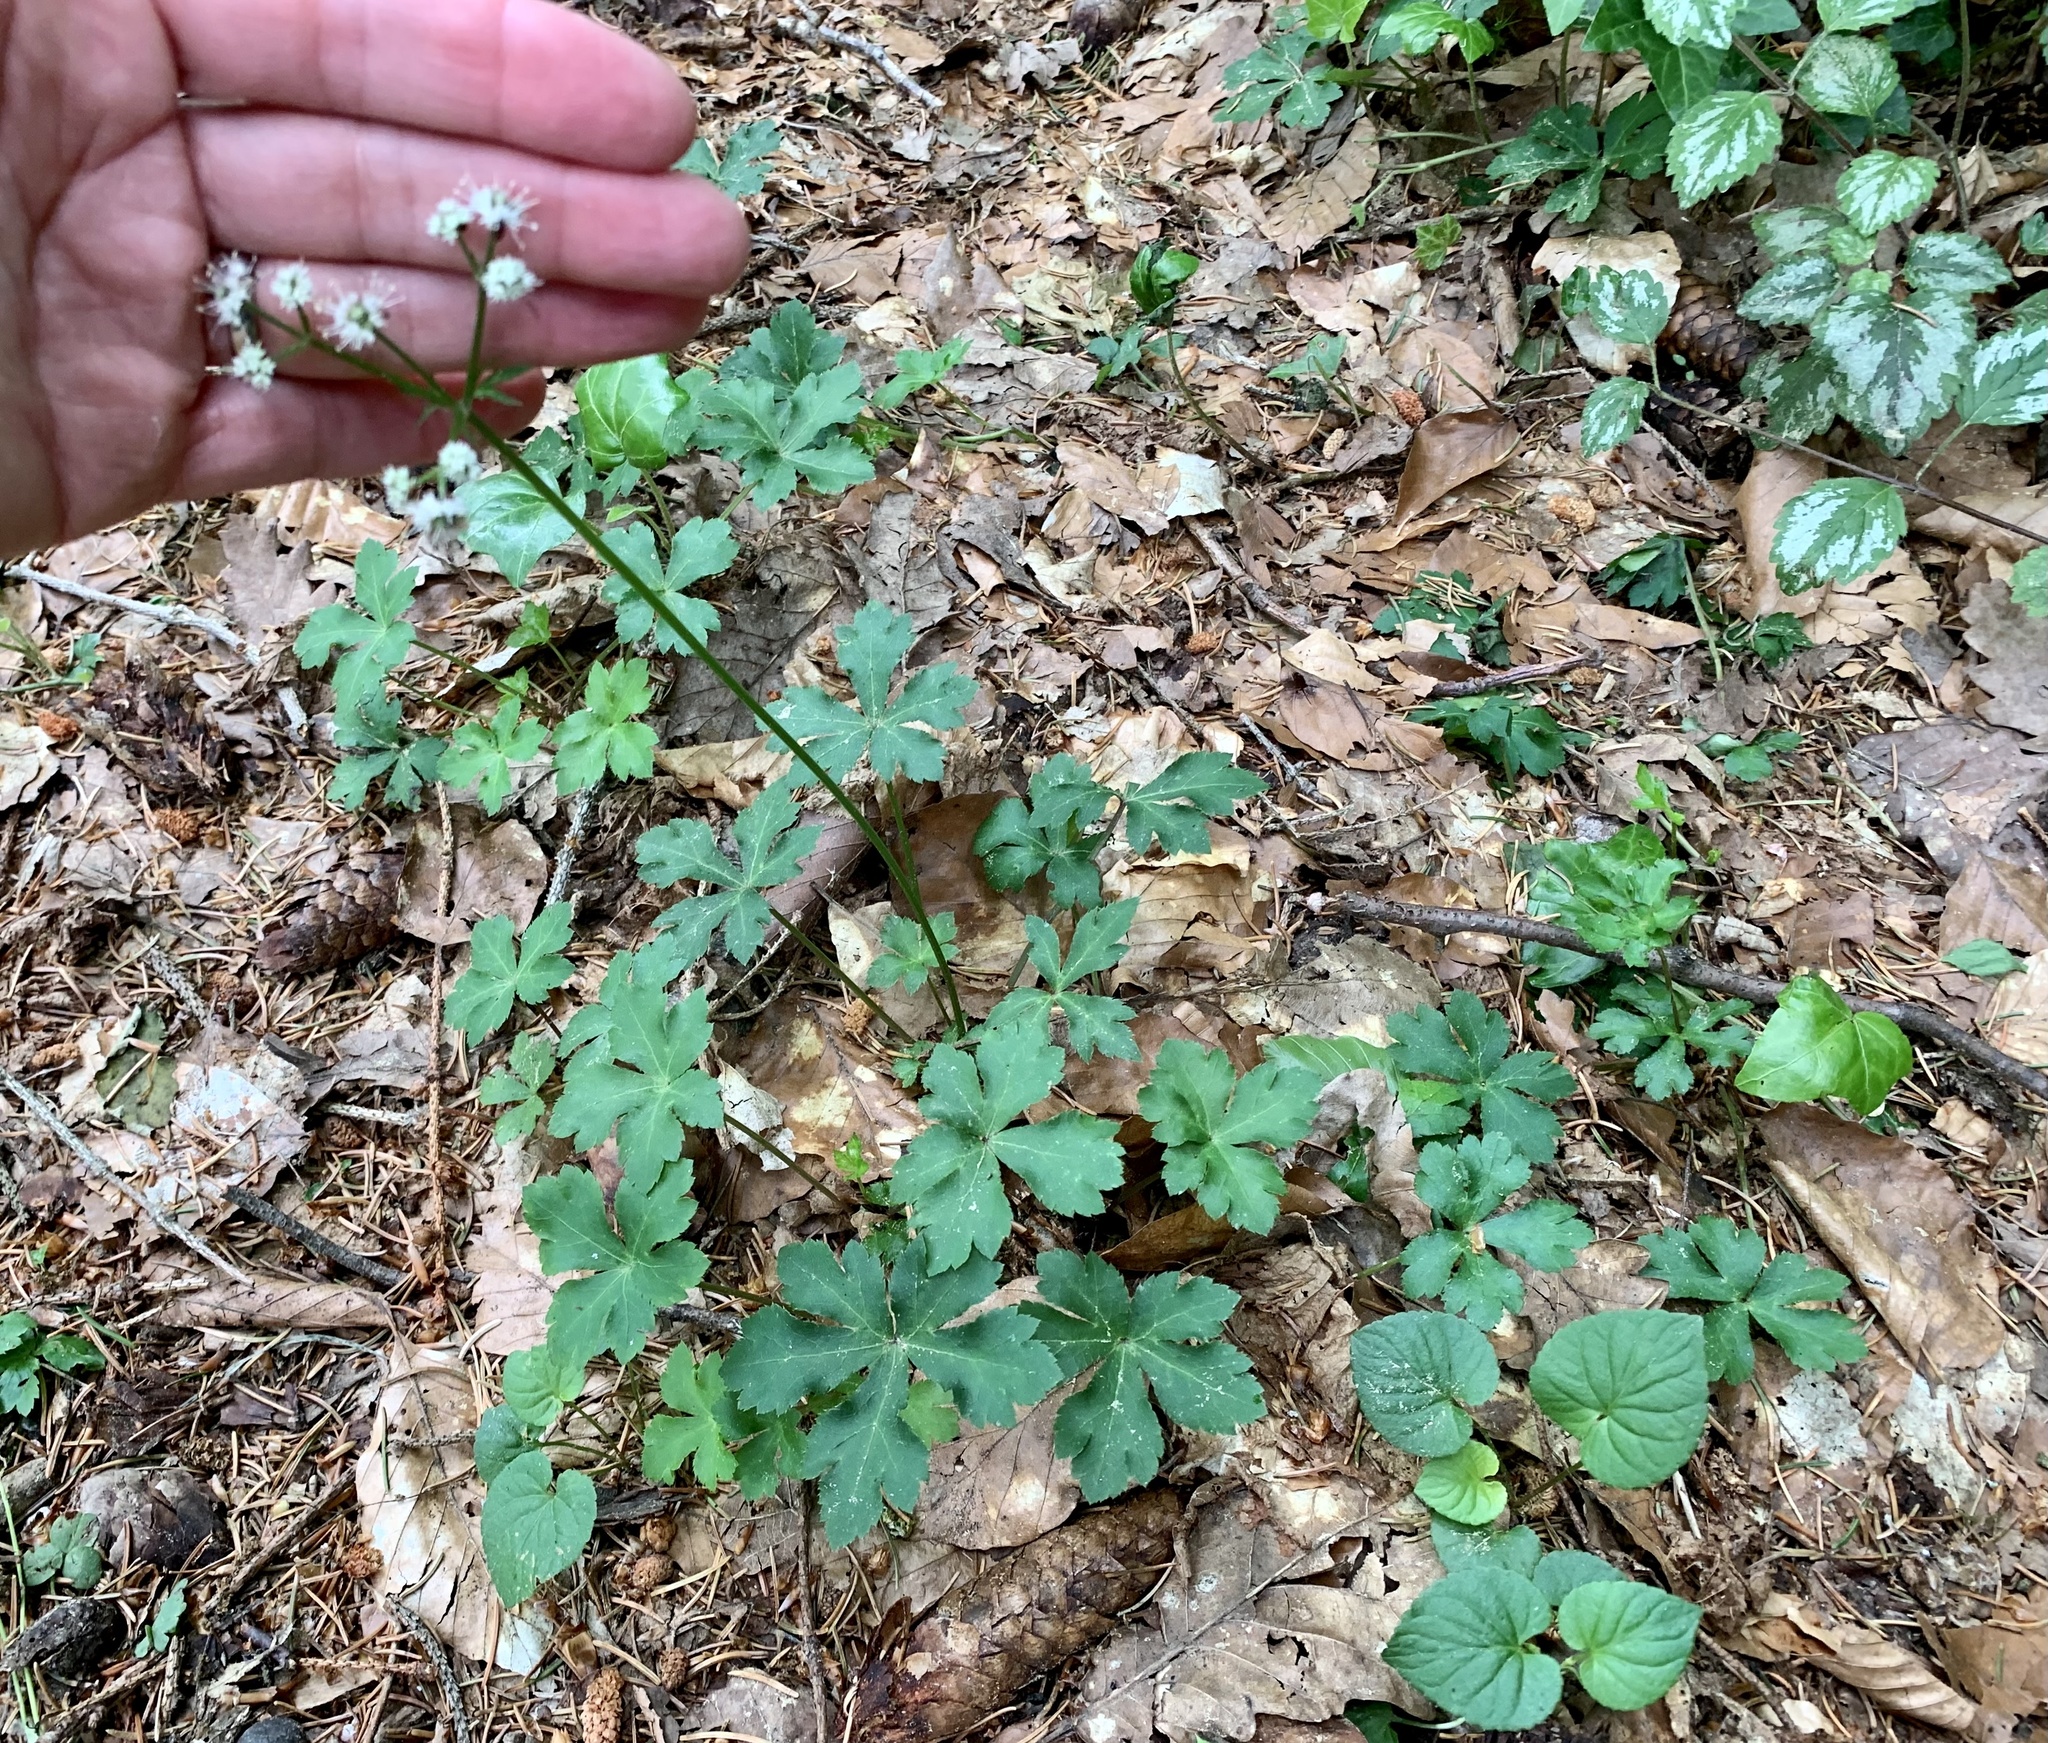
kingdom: Plantae
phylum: Tracheophyta
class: Magnoliopsida
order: Apiales
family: Apiaceae
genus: Sanicula
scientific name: Sanicula europaea
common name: Sanicle
